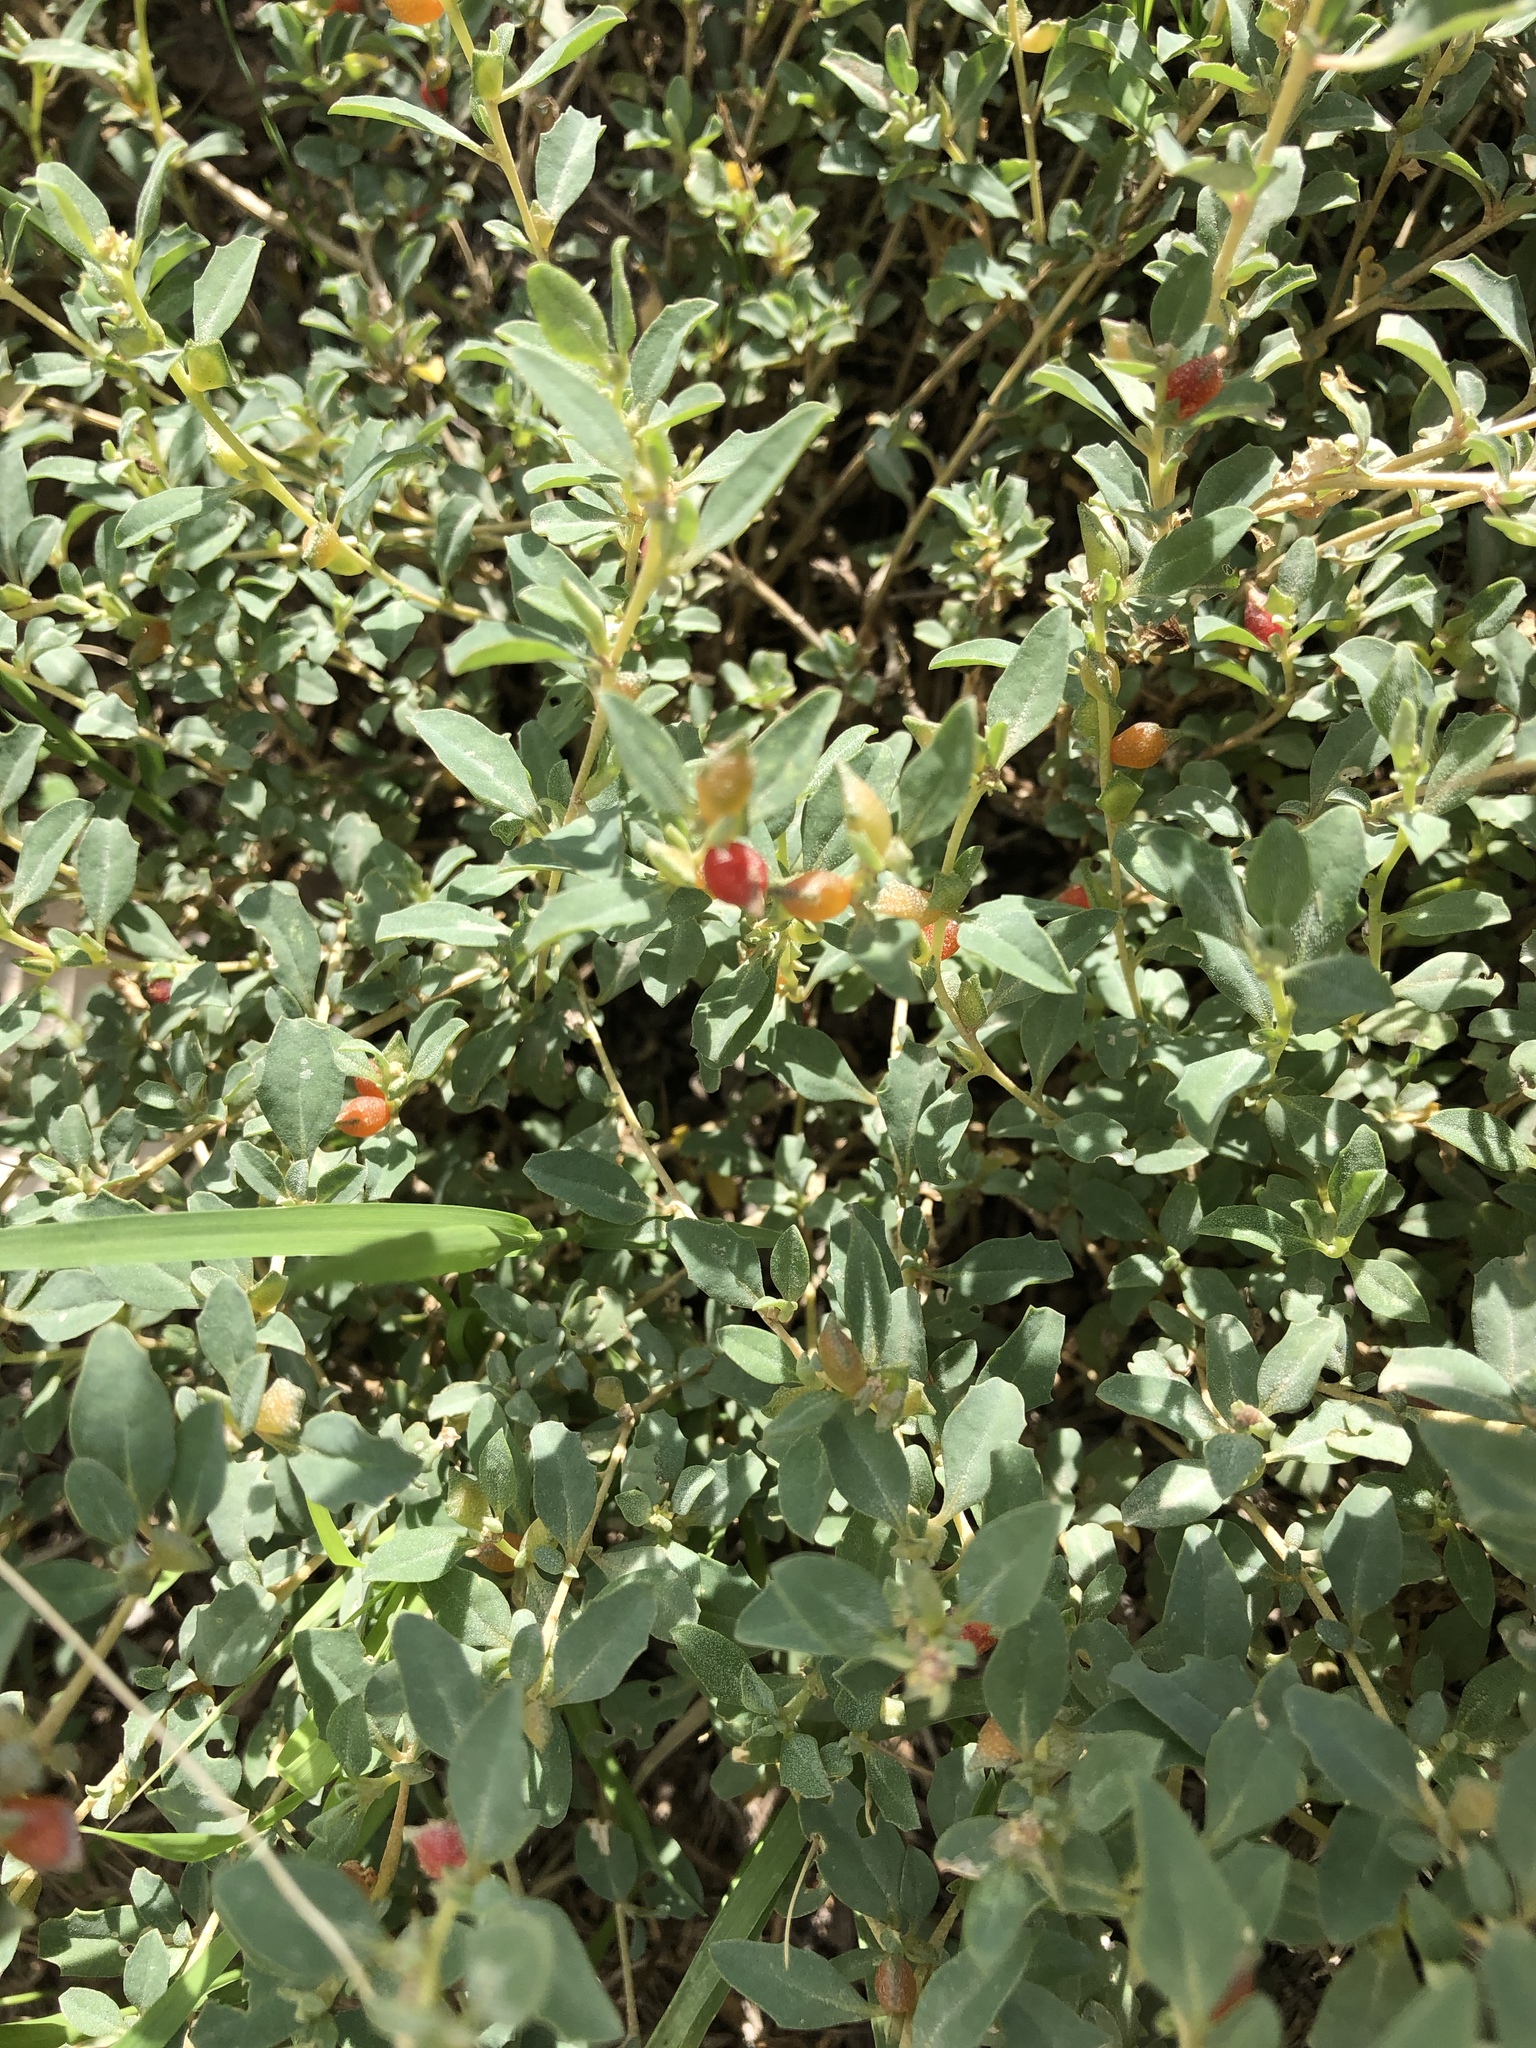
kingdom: Plantae
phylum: Tracheophyta
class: Magnoliopsida
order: Caryophyllales
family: Amaranthaceae
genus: Atriplex
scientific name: Atriplex semibaccata
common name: Australian saltbush
